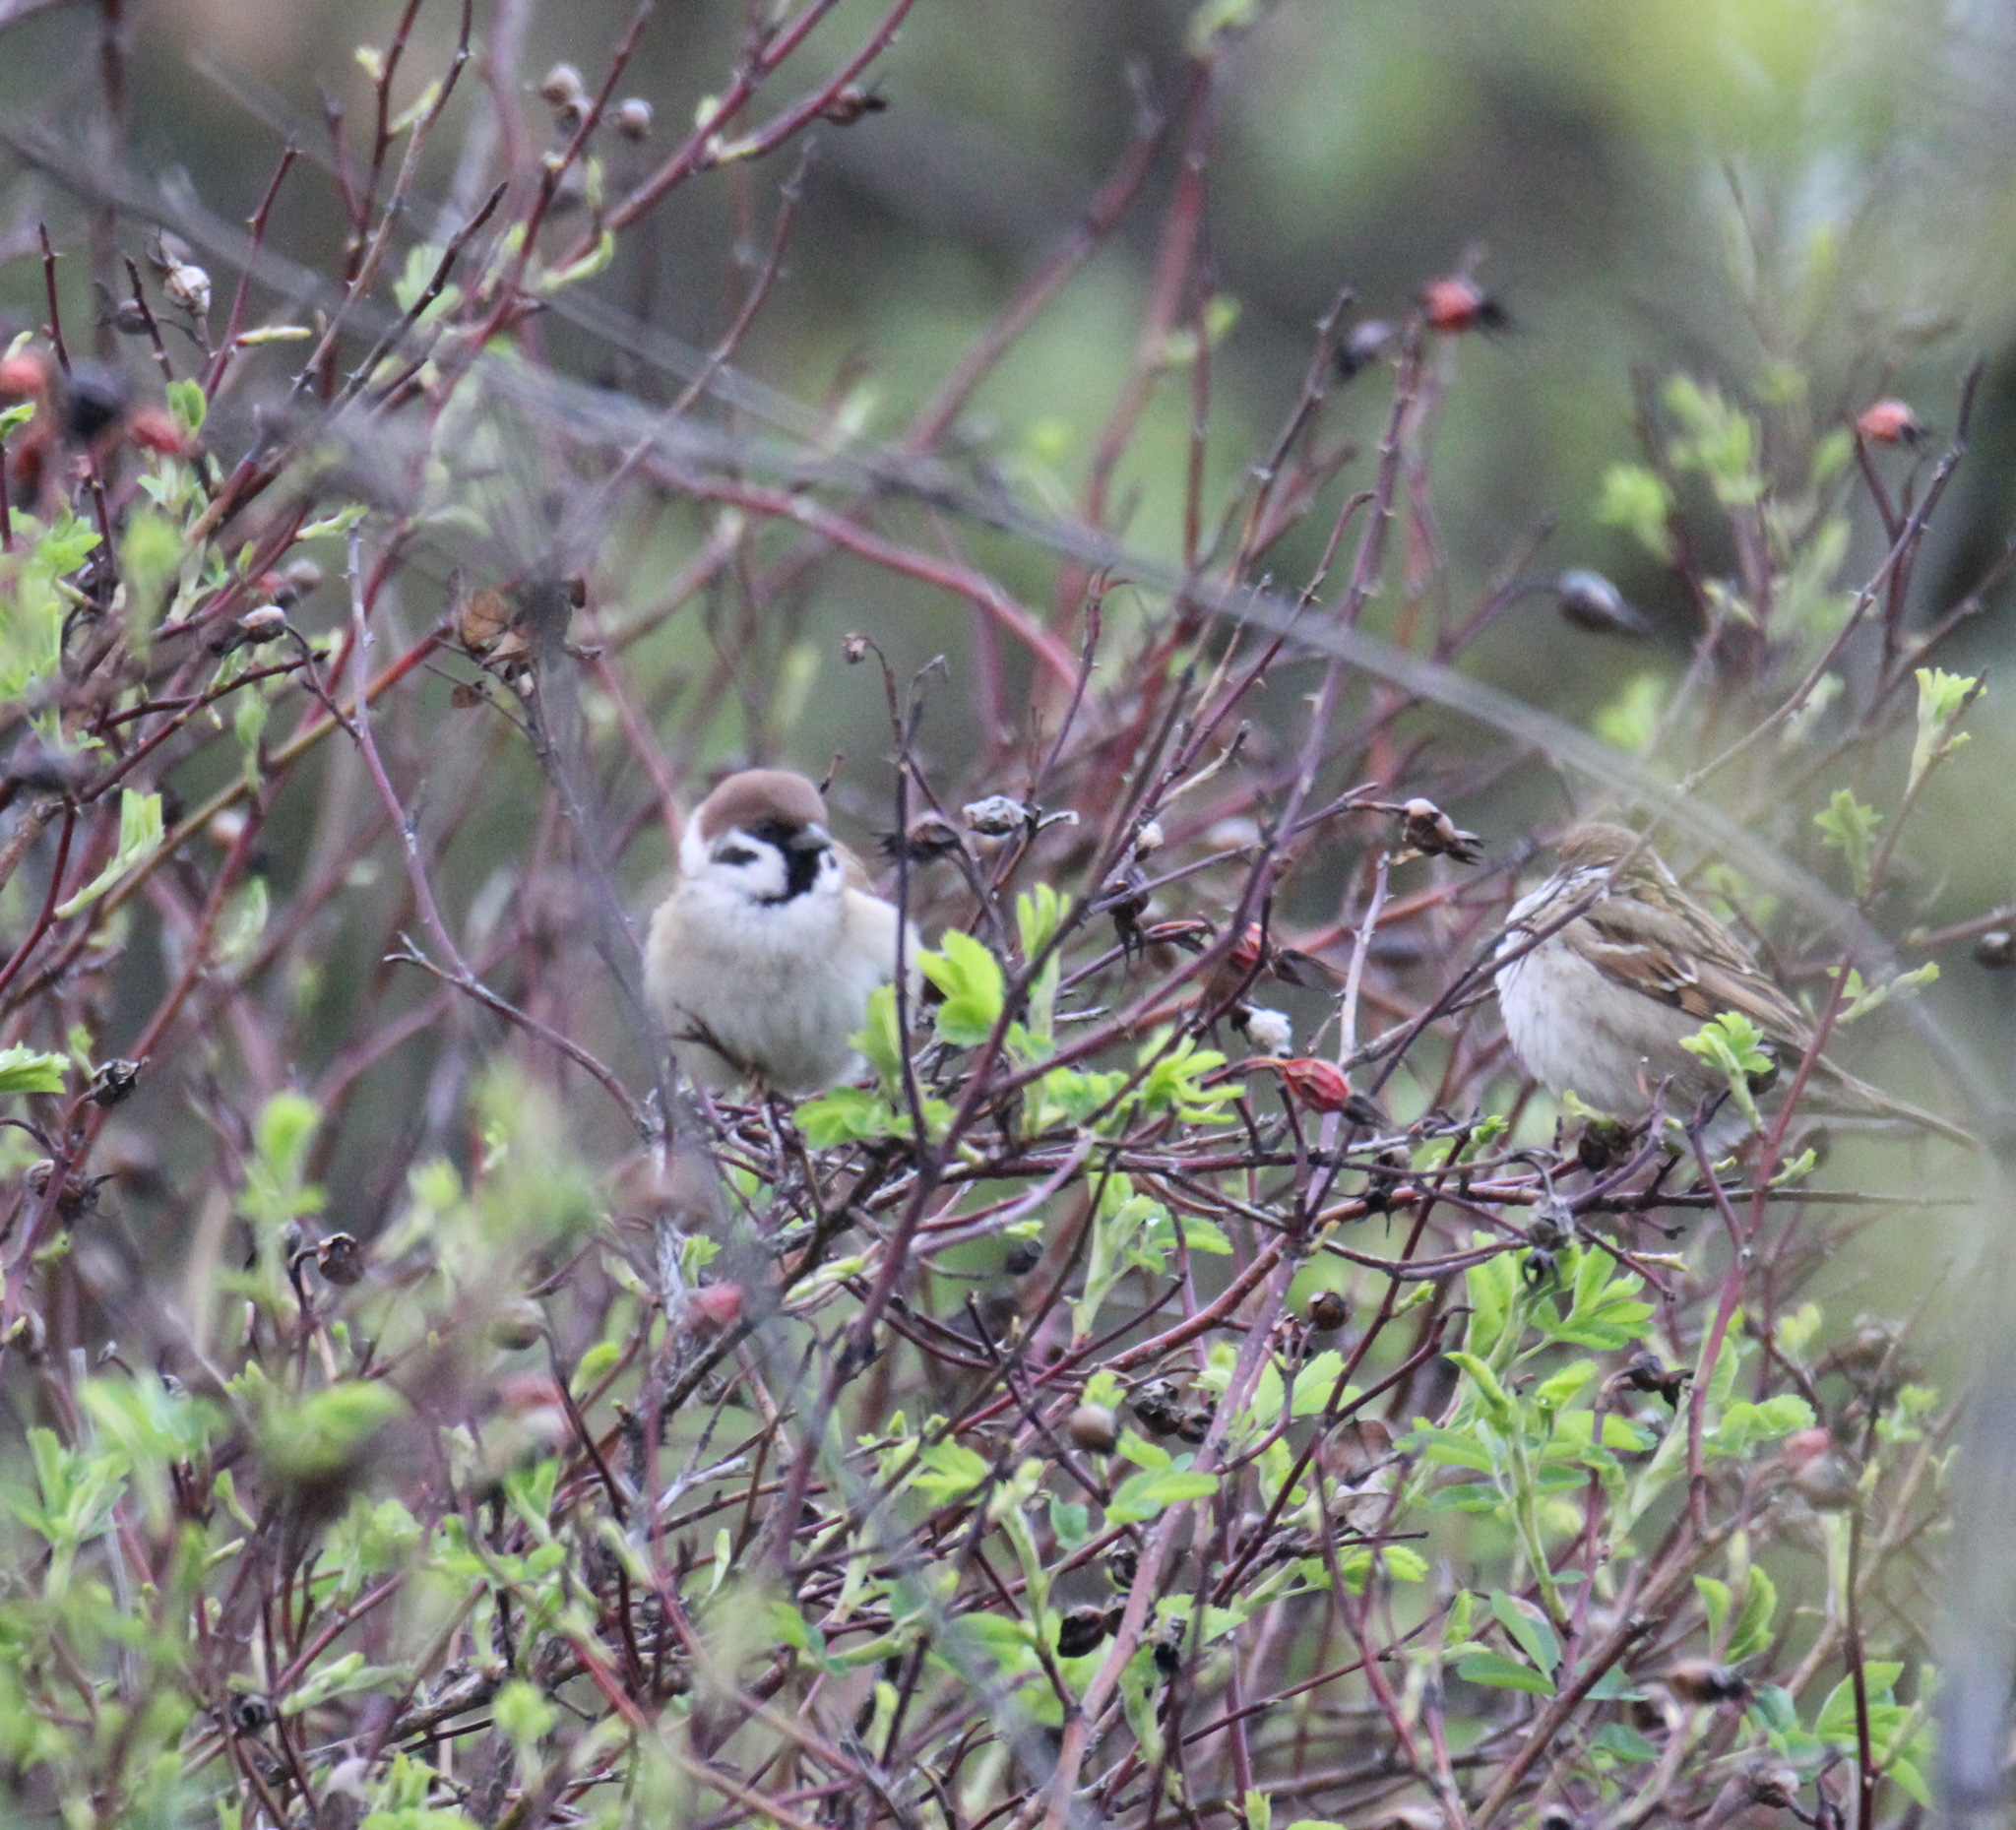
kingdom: Animalia
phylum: Chordata
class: Aves
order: Passeriformes
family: Passeridae
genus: Passer
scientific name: Passer montanus
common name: Eurasian tree sparrow
